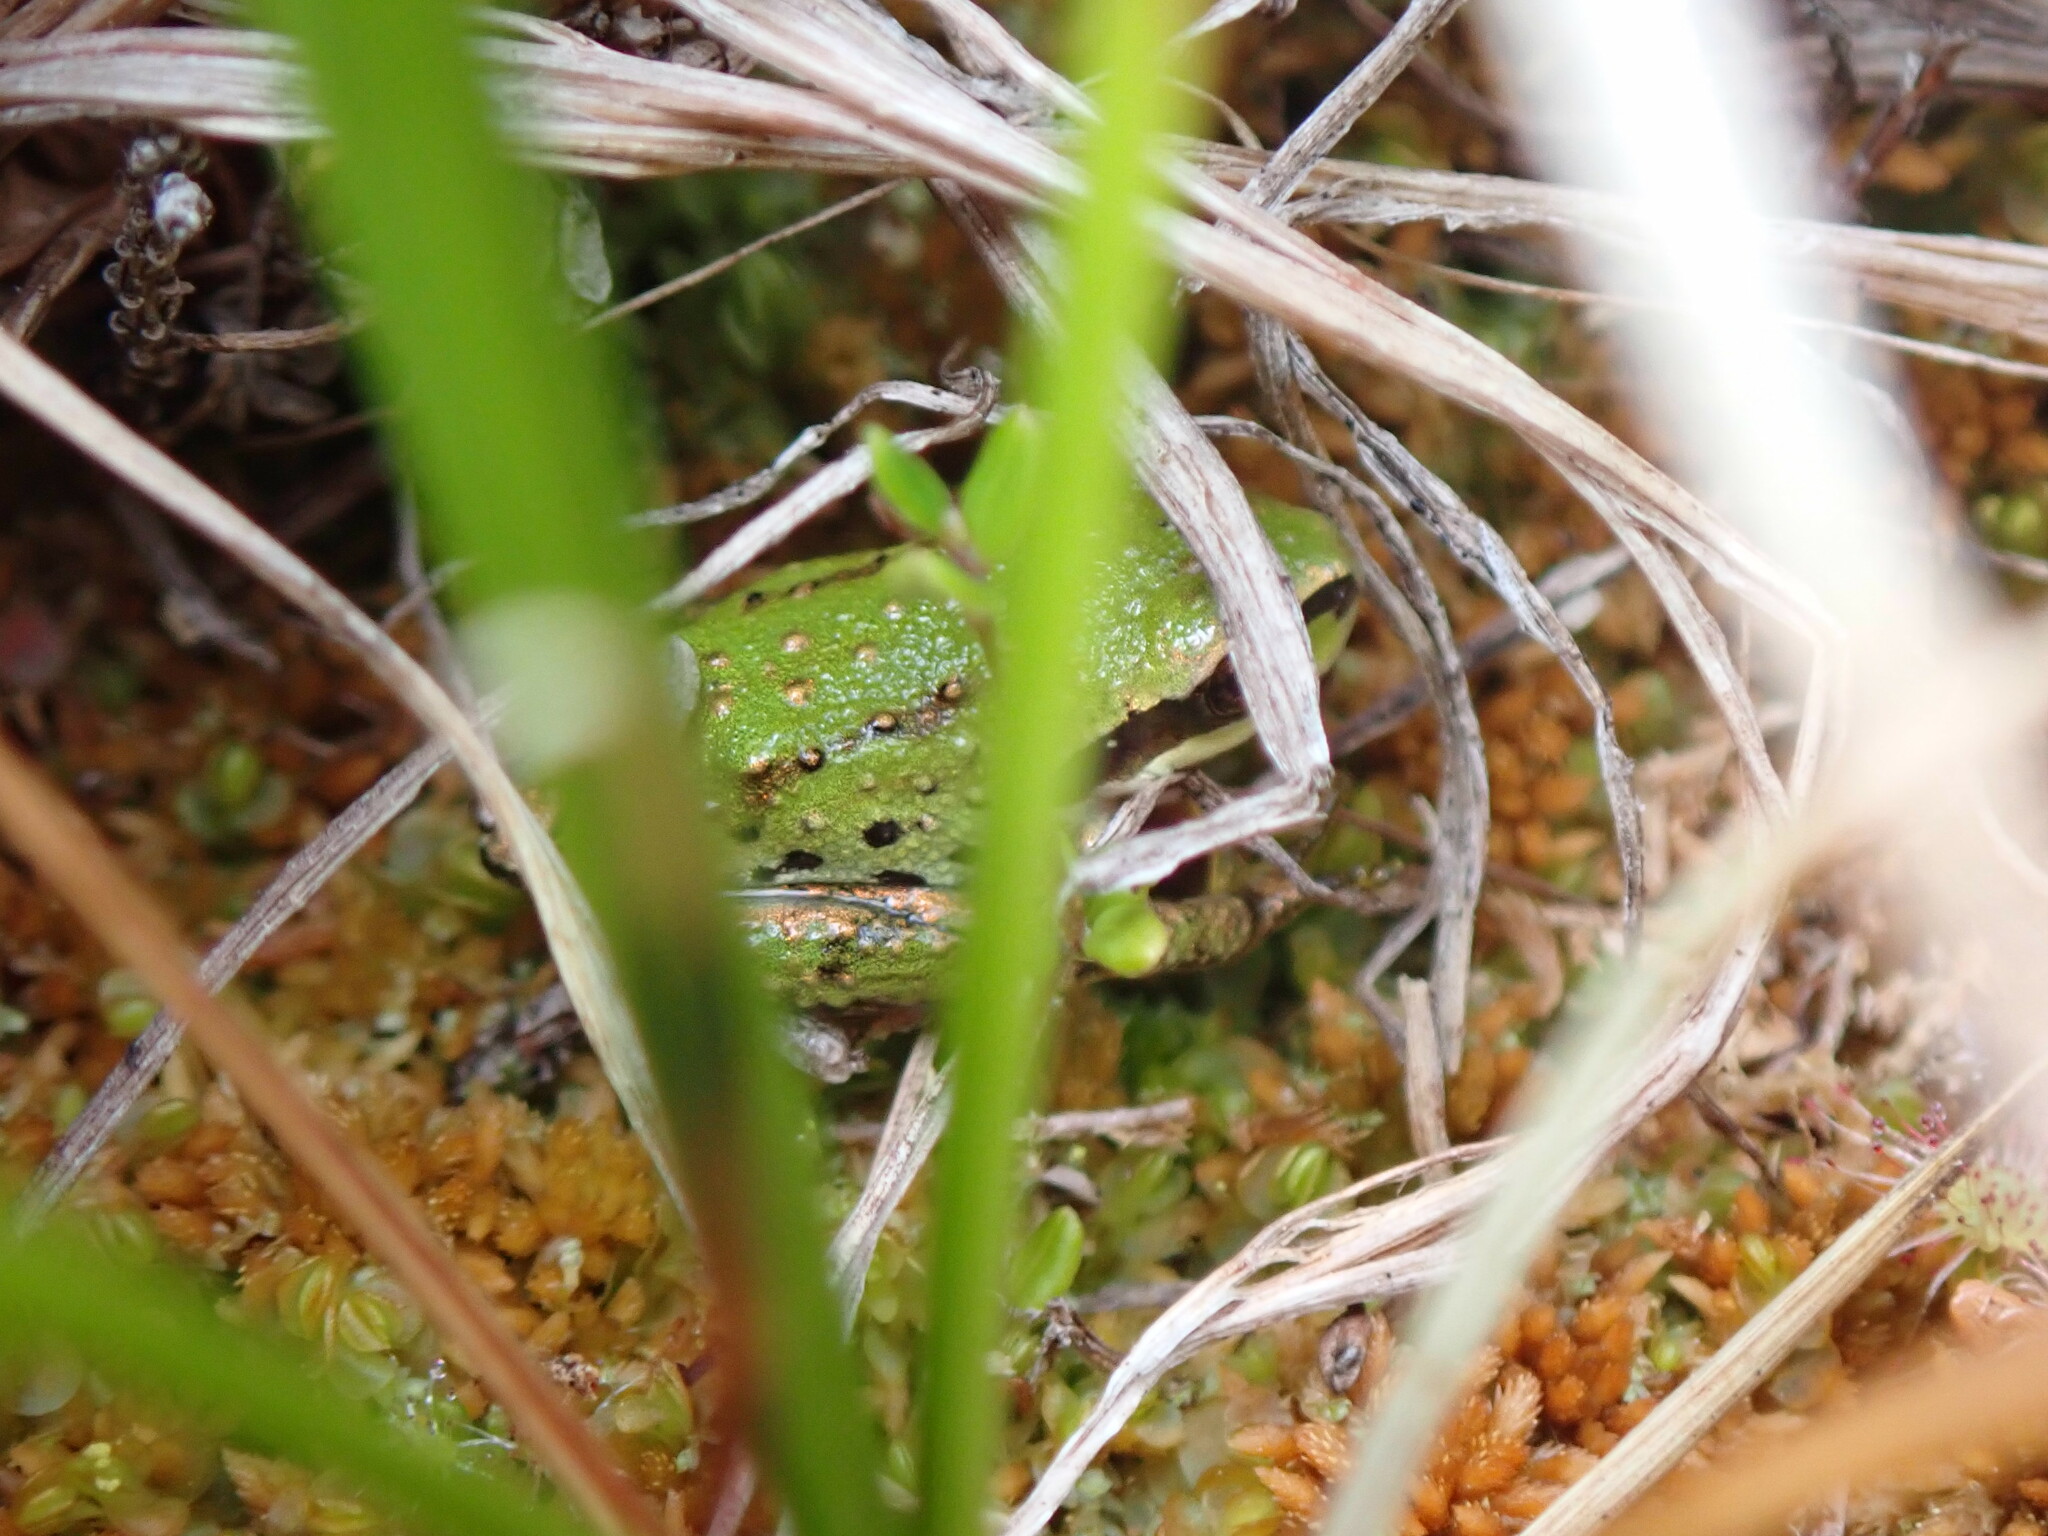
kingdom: Animalia
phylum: Chordata
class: Amphibia
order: Anura
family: Hylidae
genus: Pseudacris
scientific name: Pseudacris regilla
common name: Pacific chorus frog
